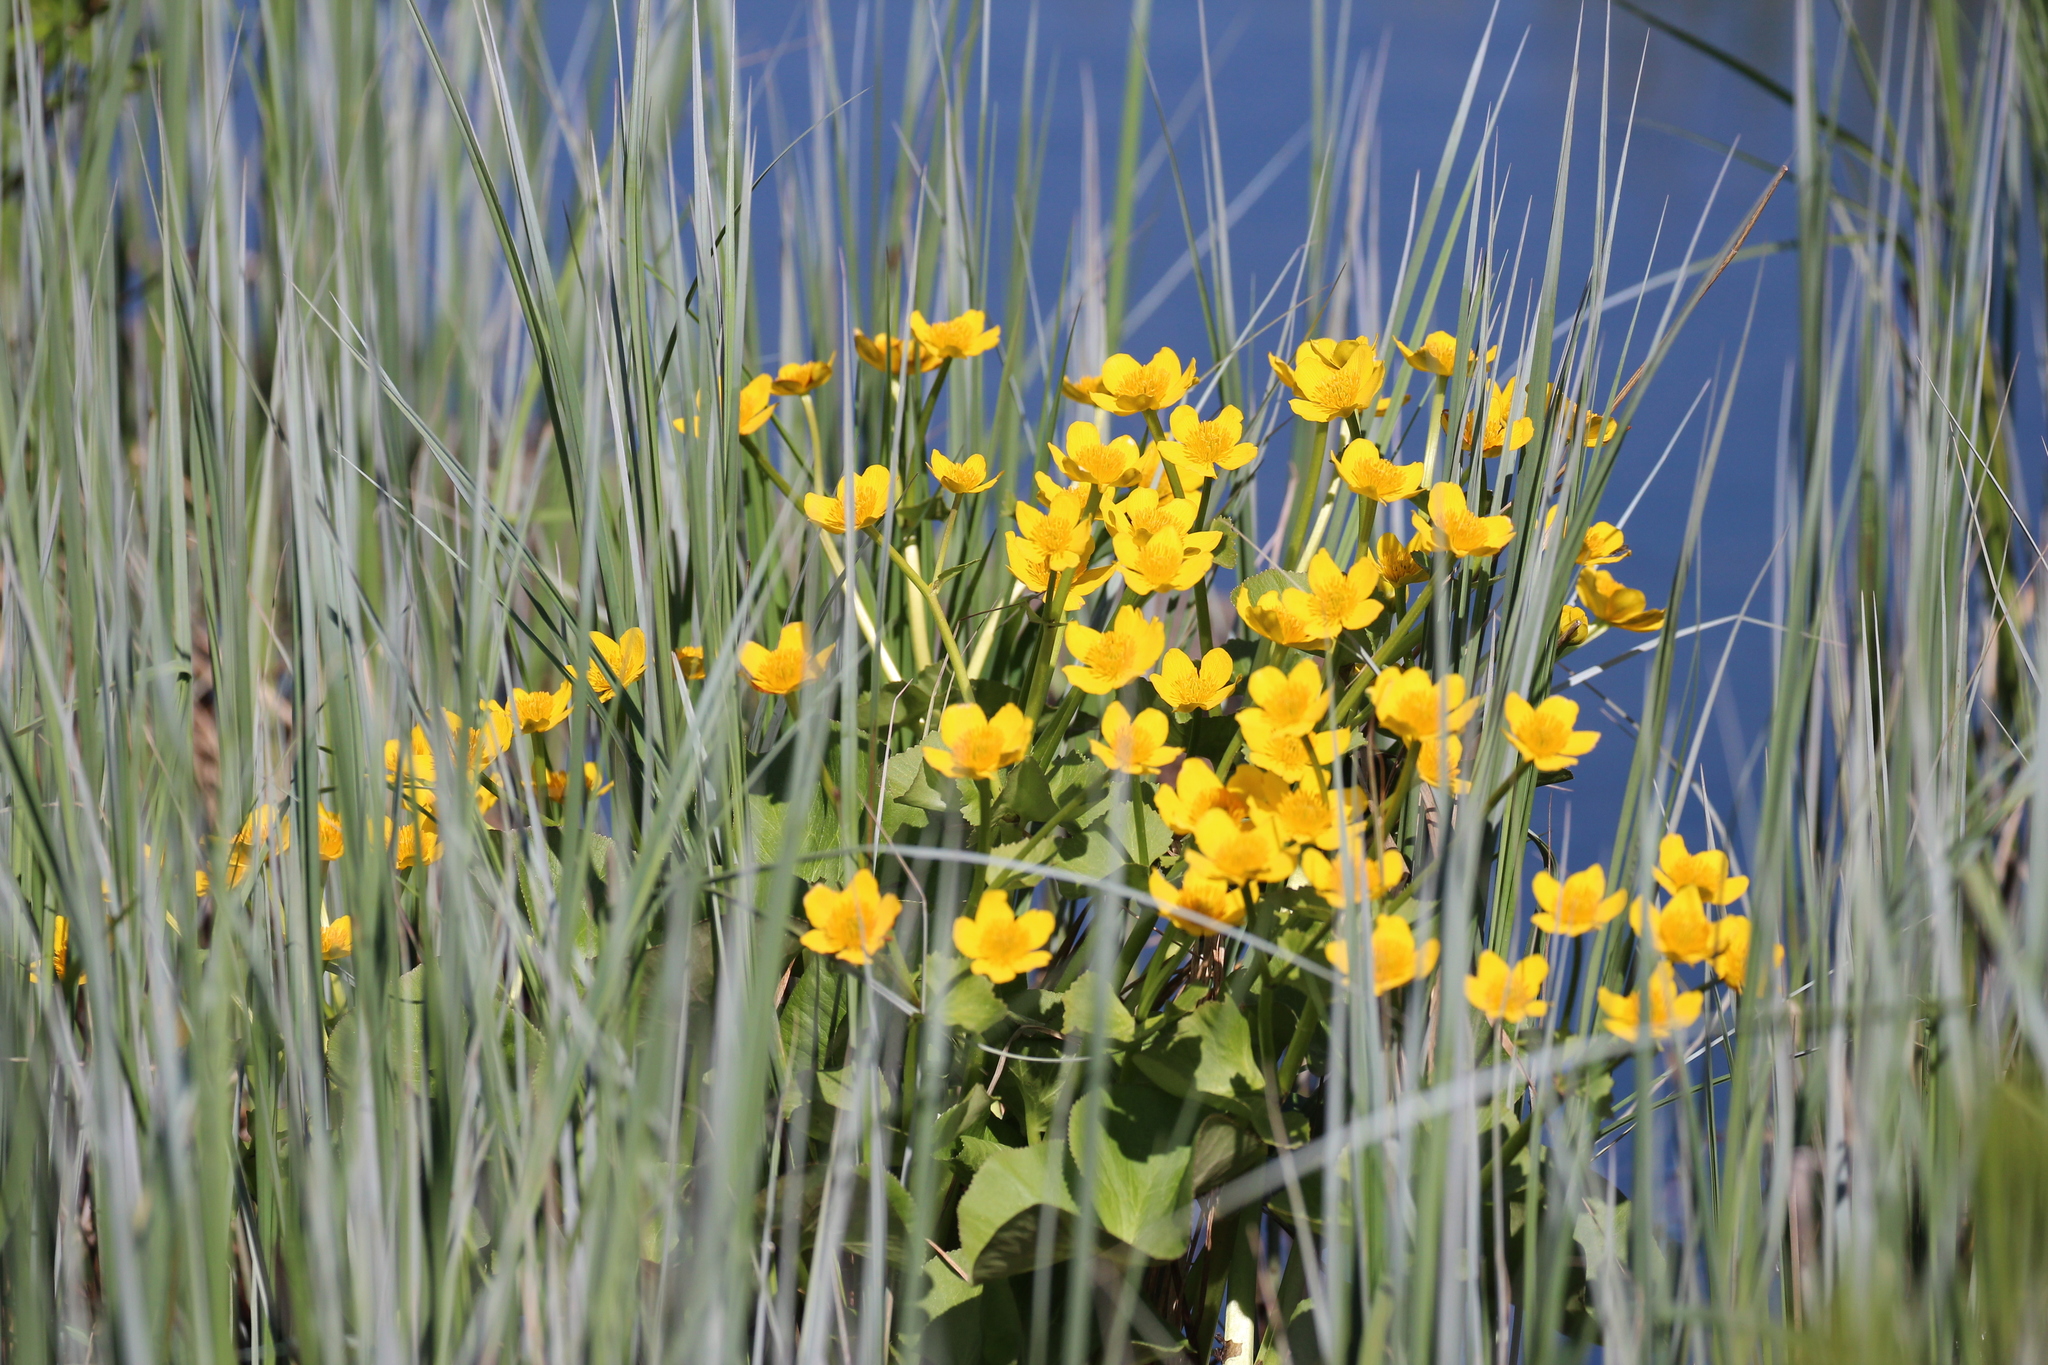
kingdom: Plantae
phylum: Tracheophyta
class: Magnoliopsida
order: Ranunculales
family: Ranunculaceae
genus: Caltha
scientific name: Caltha palustris
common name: Marsh marigold
